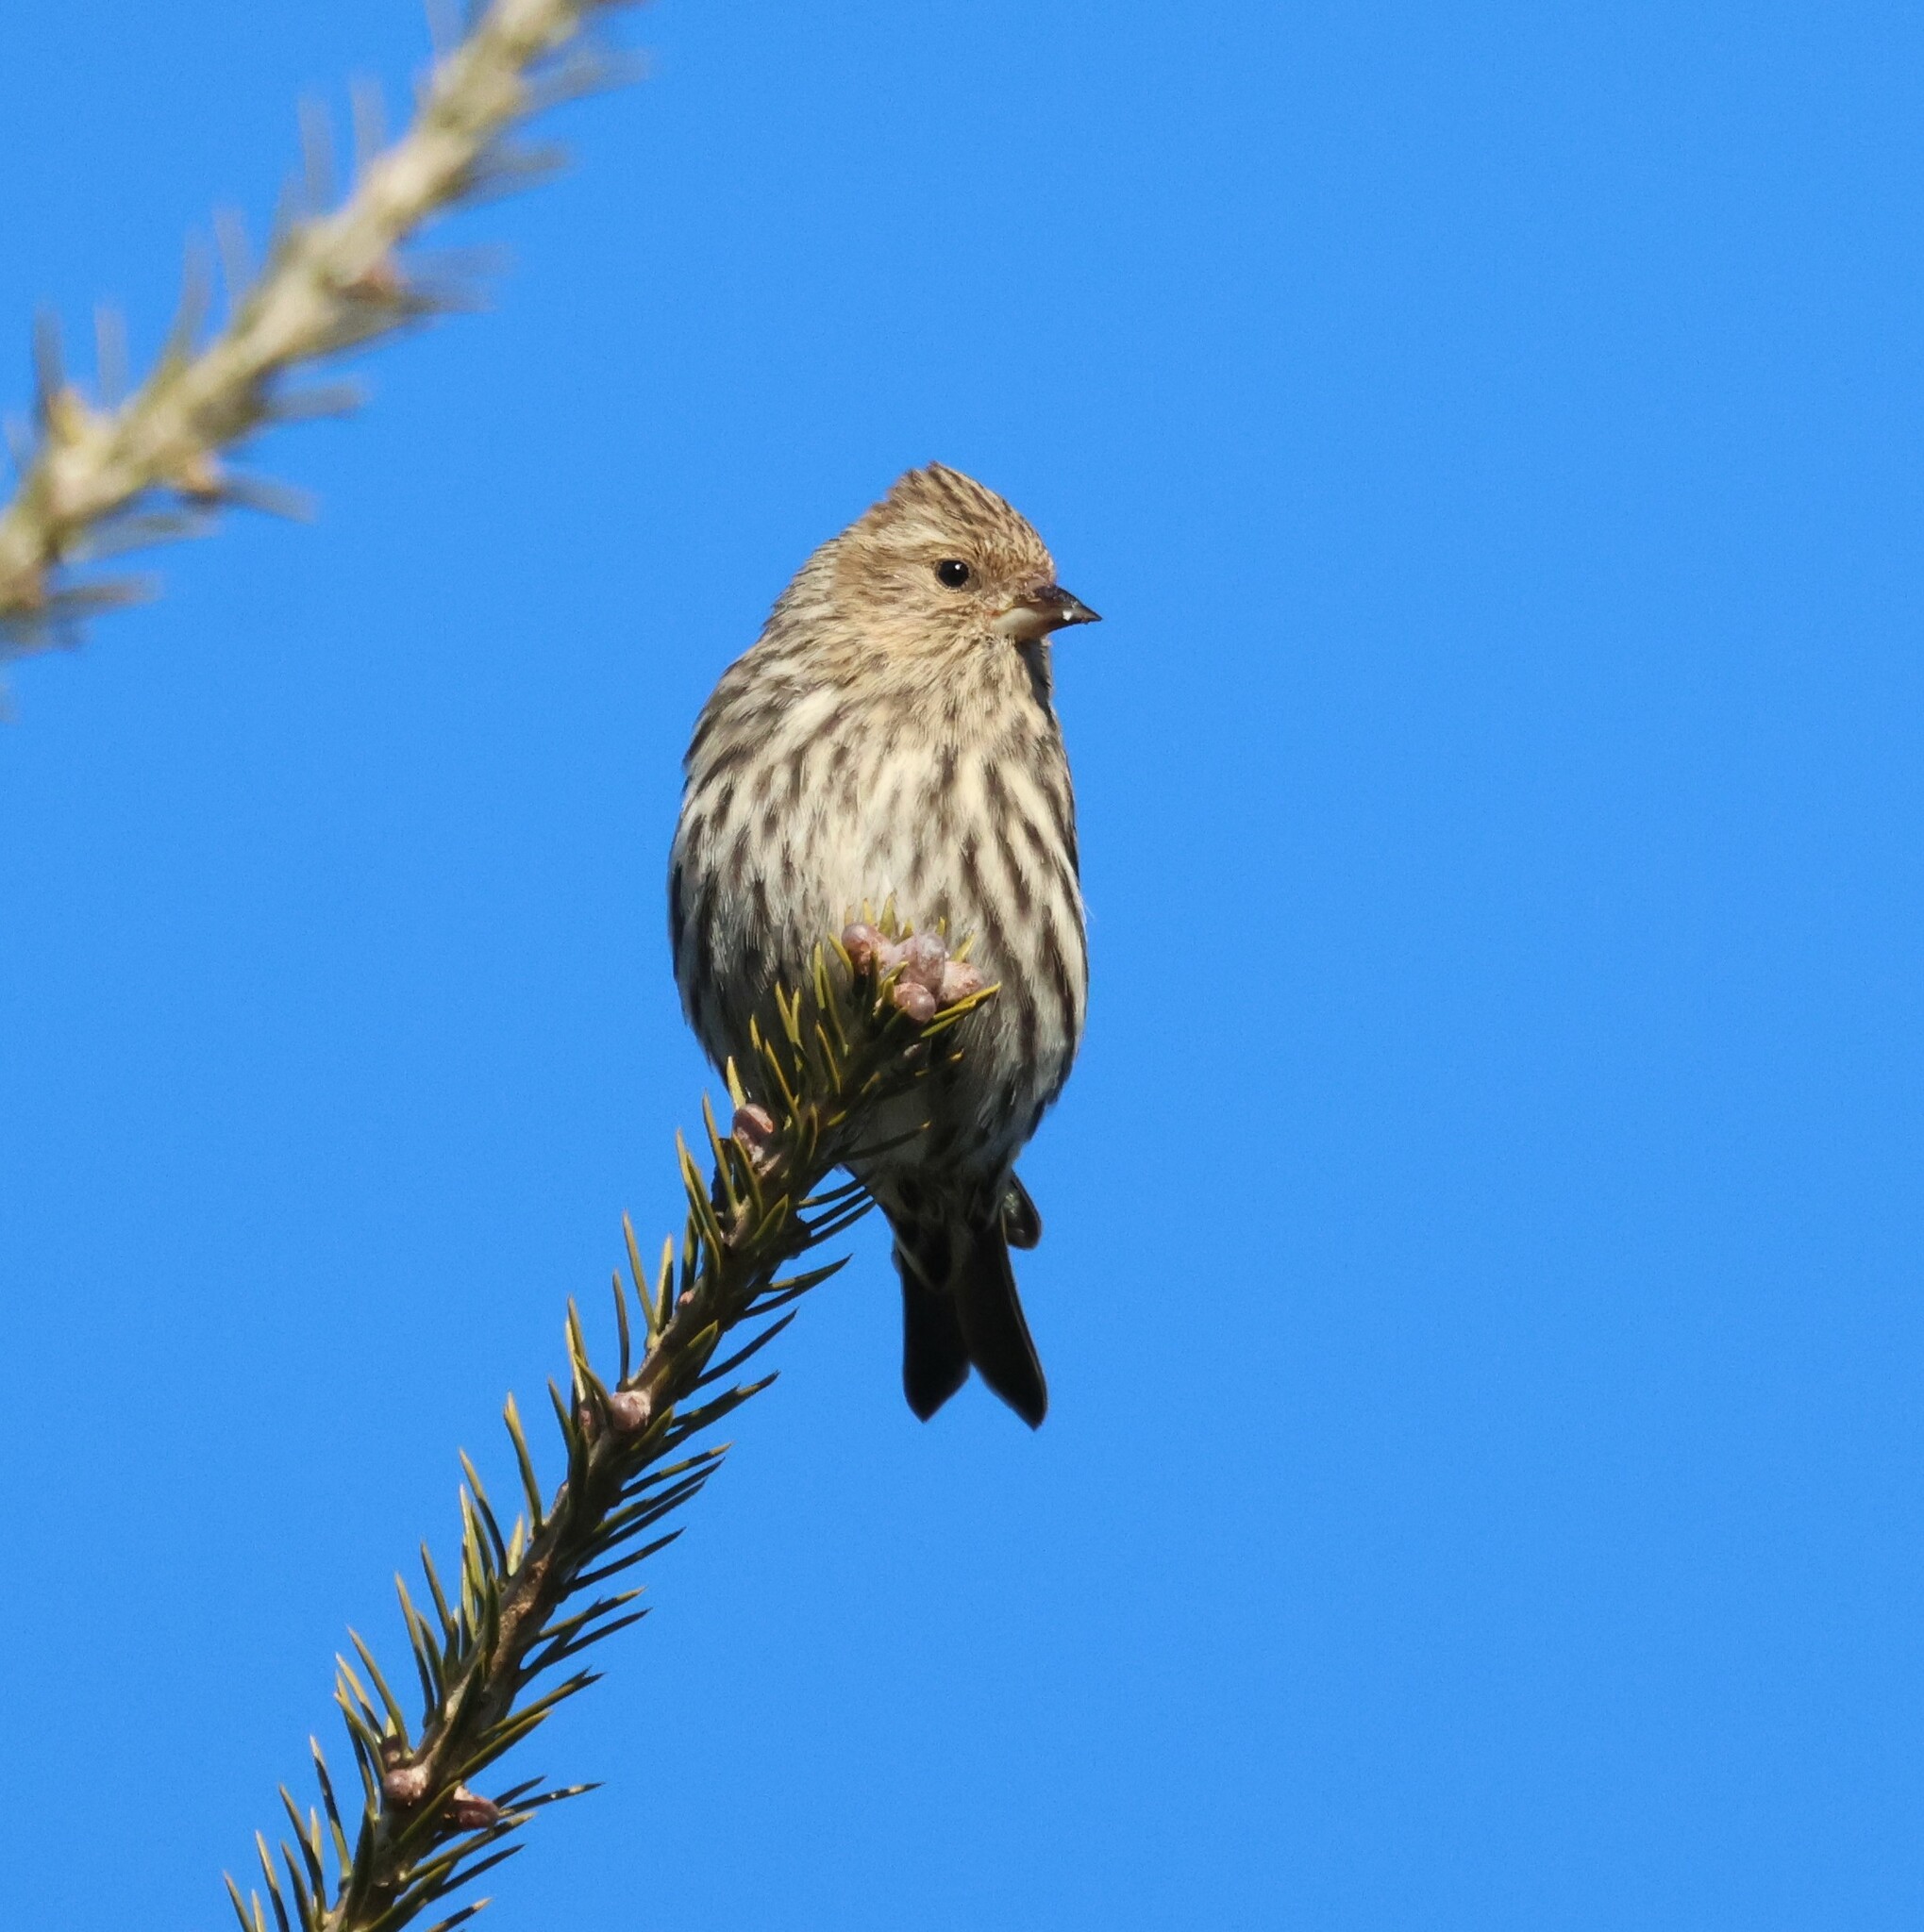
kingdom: Animalia
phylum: Chordata
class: Aves
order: Passeriformes
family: Fringillidae
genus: Spinus
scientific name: Spinus pinus
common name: Pine siskin
